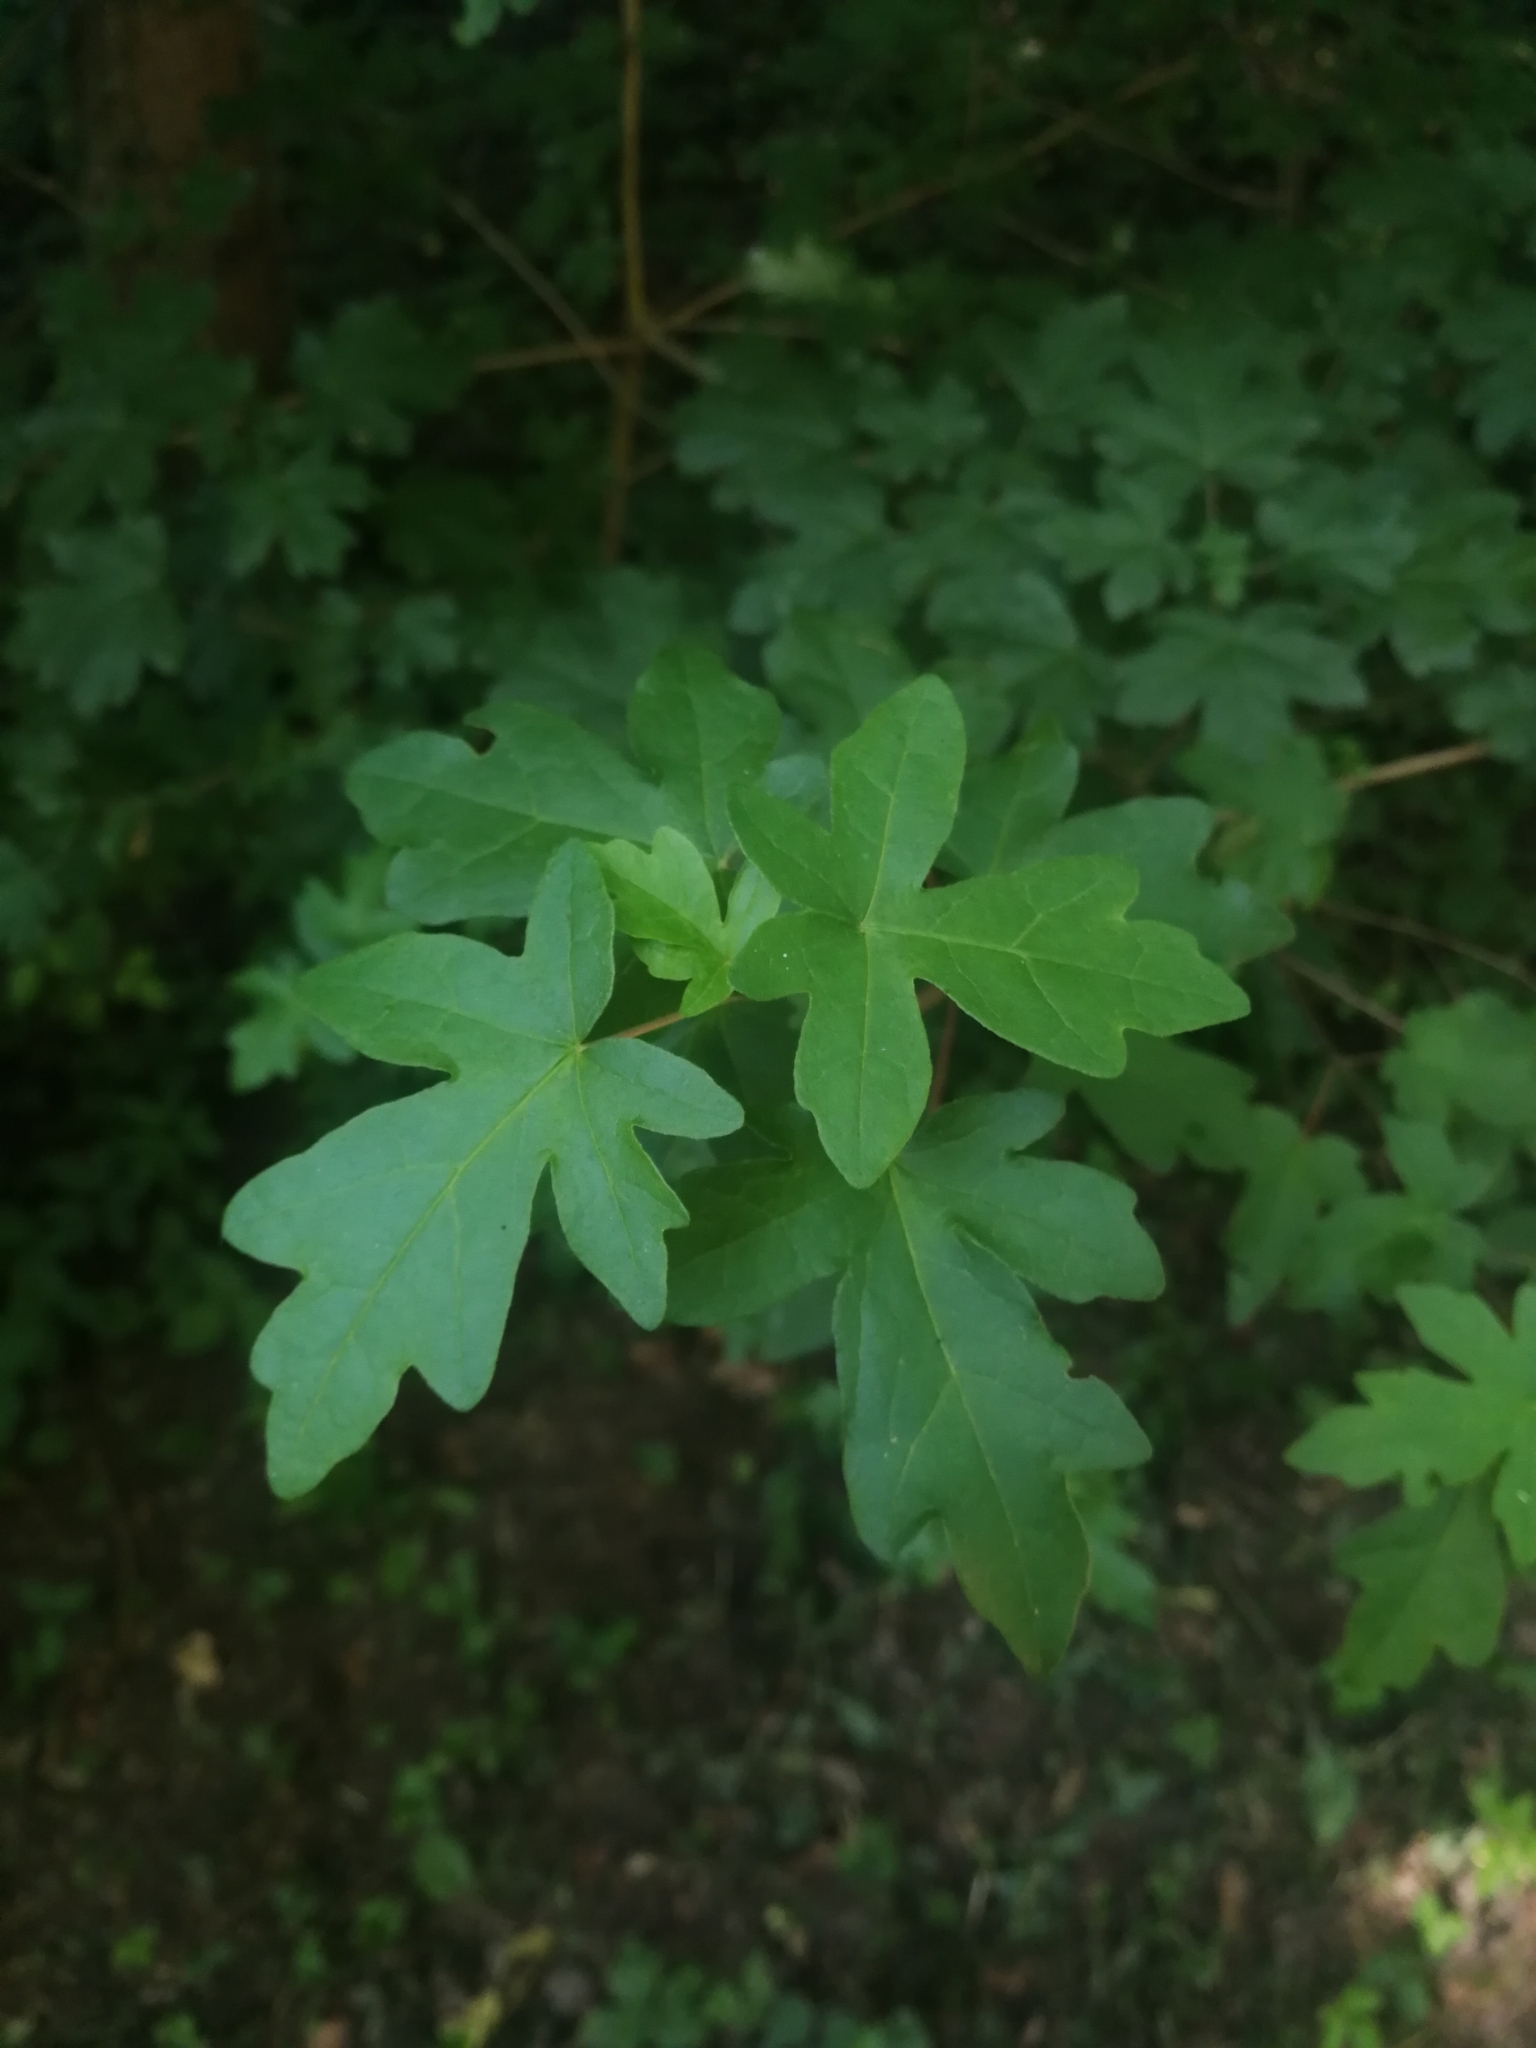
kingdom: Plantae
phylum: Tracheophyta
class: Magnoliopsida
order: Sapindales
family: Sapindaceae
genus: Acer
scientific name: Acer campestre
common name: Field maple
